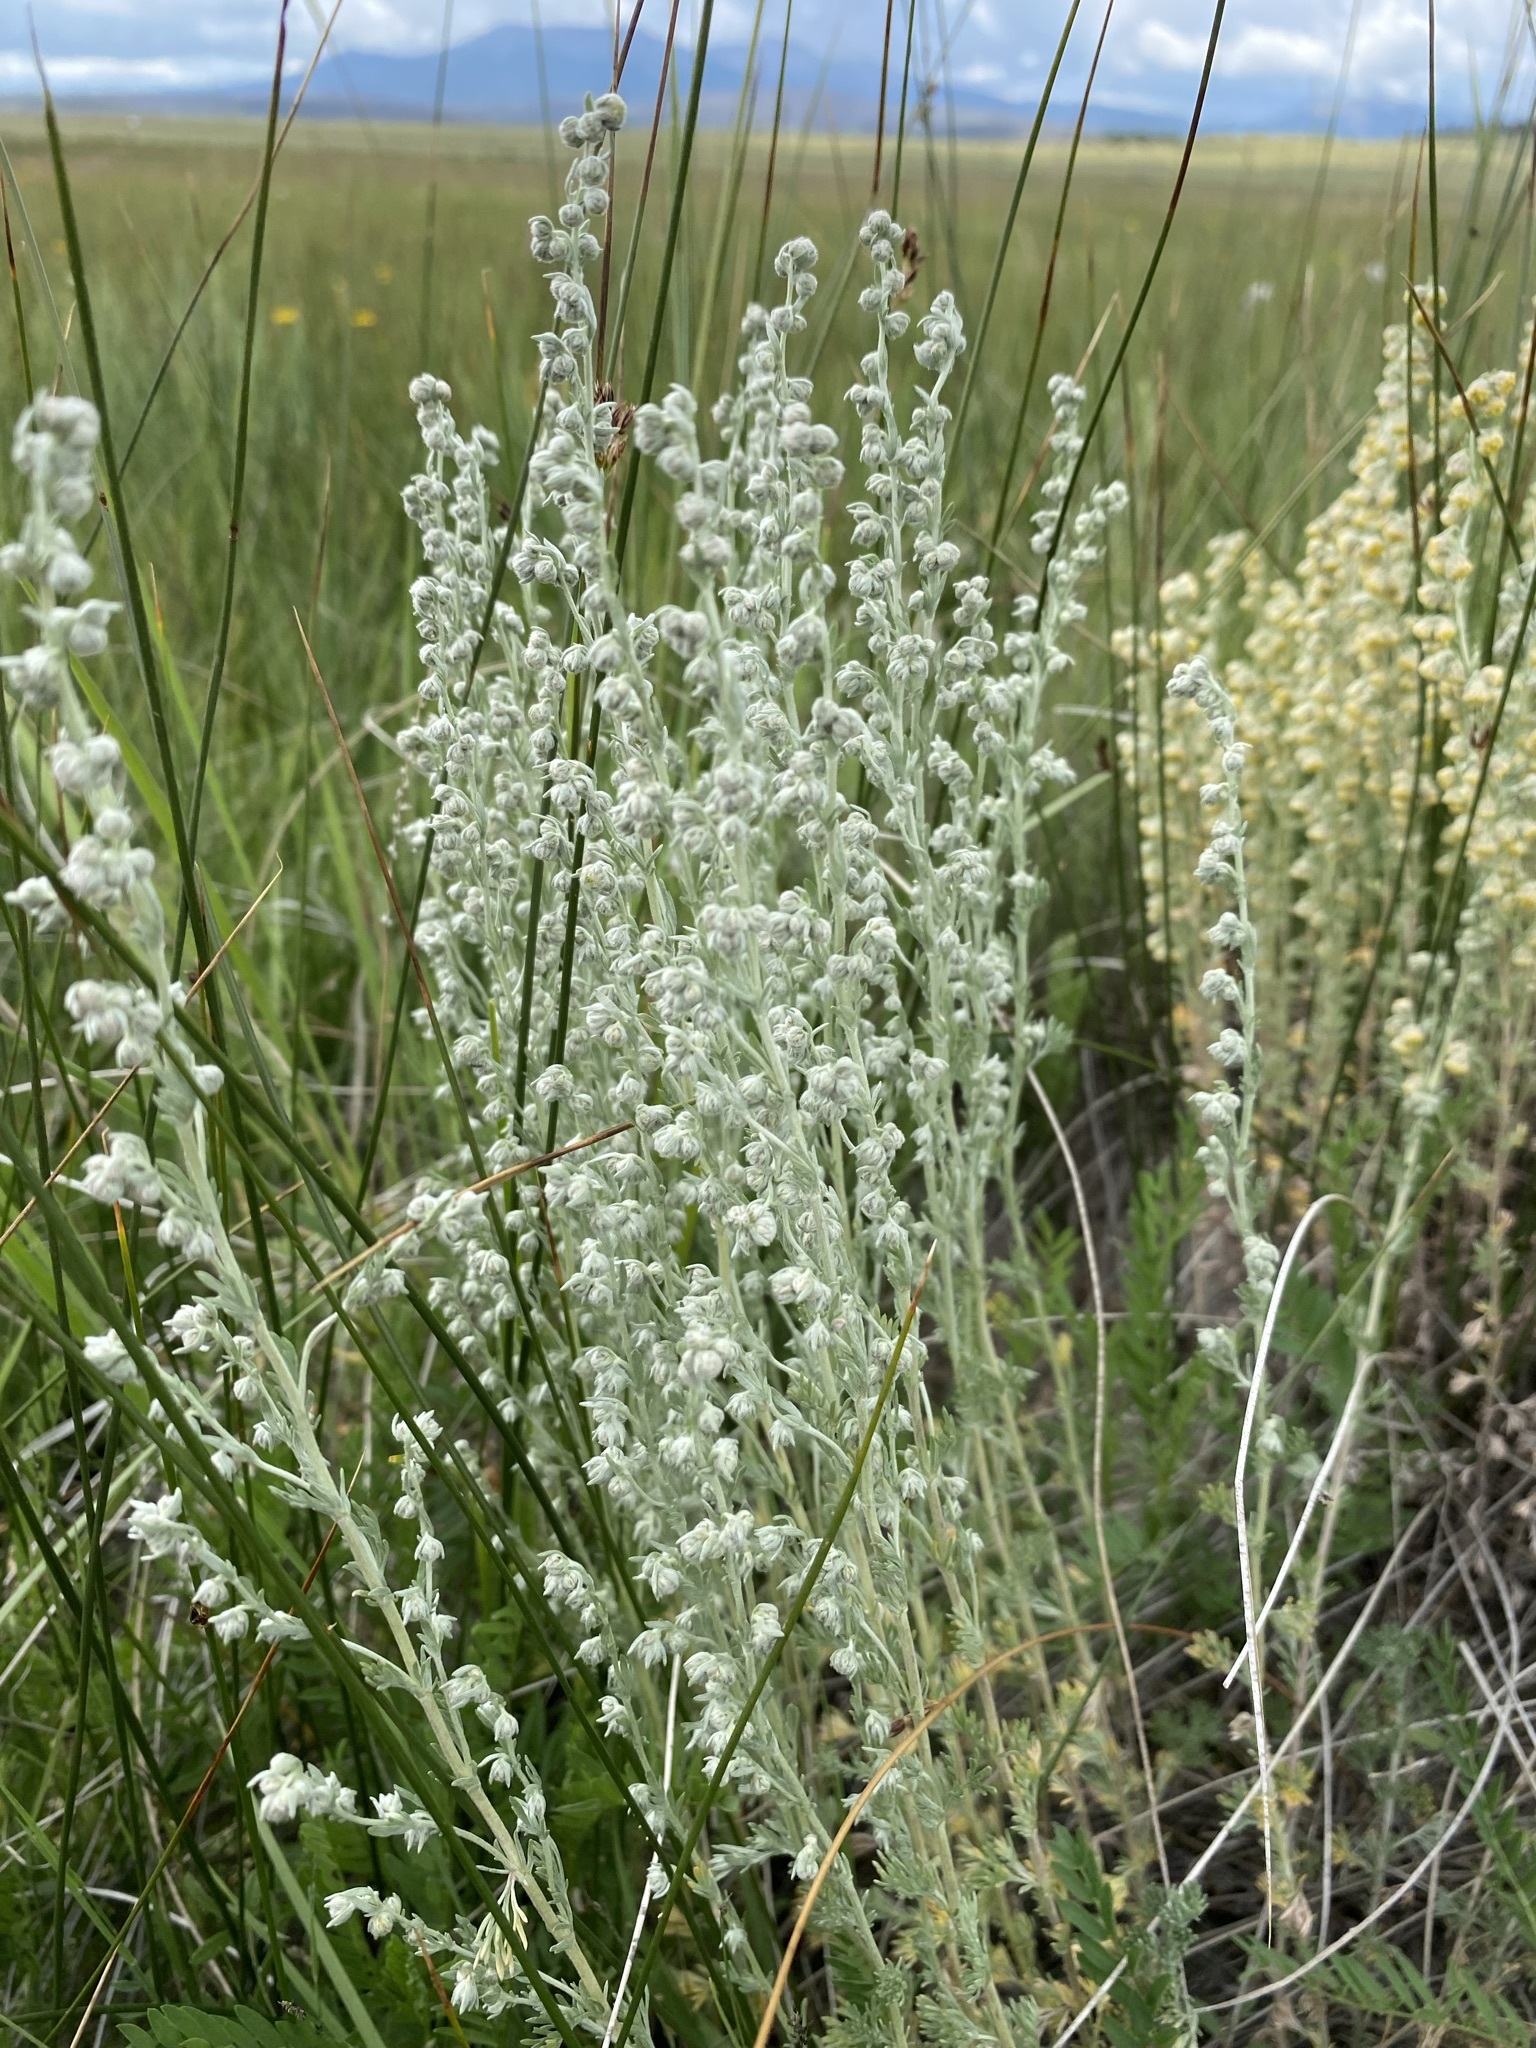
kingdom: Plantae
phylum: Tracheophyta
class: Magnoliopsida
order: Asterales
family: Asteraceae
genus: Artemisia
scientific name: Artemisia frigida
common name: Prairie sagewort
